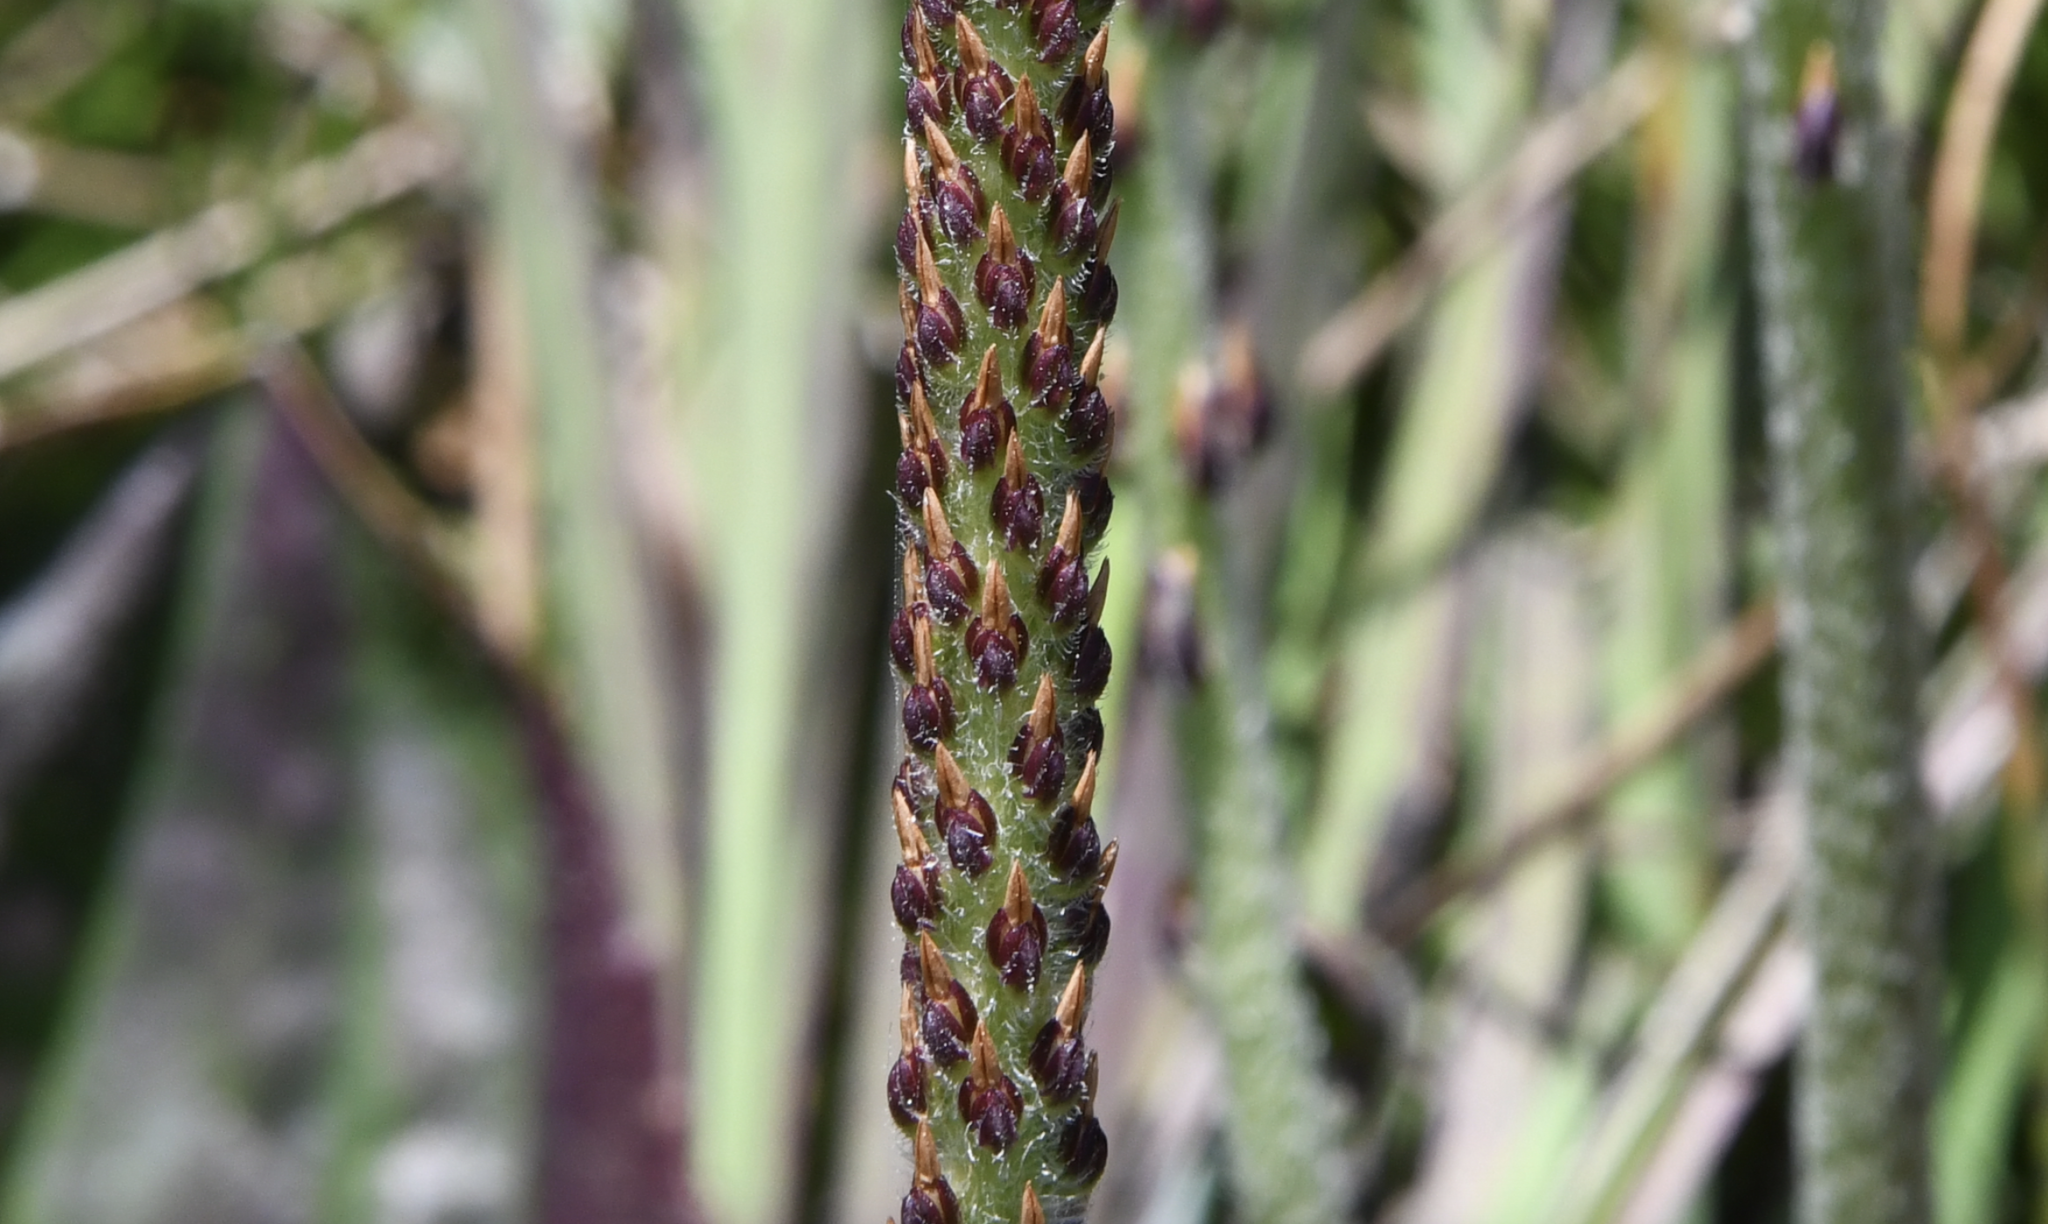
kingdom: Plantae
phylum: Tracheophyta
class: Magnoliopsida
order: Lamiales
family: Plantaginaceae
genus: Plantago
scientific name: Plantago subnuda
